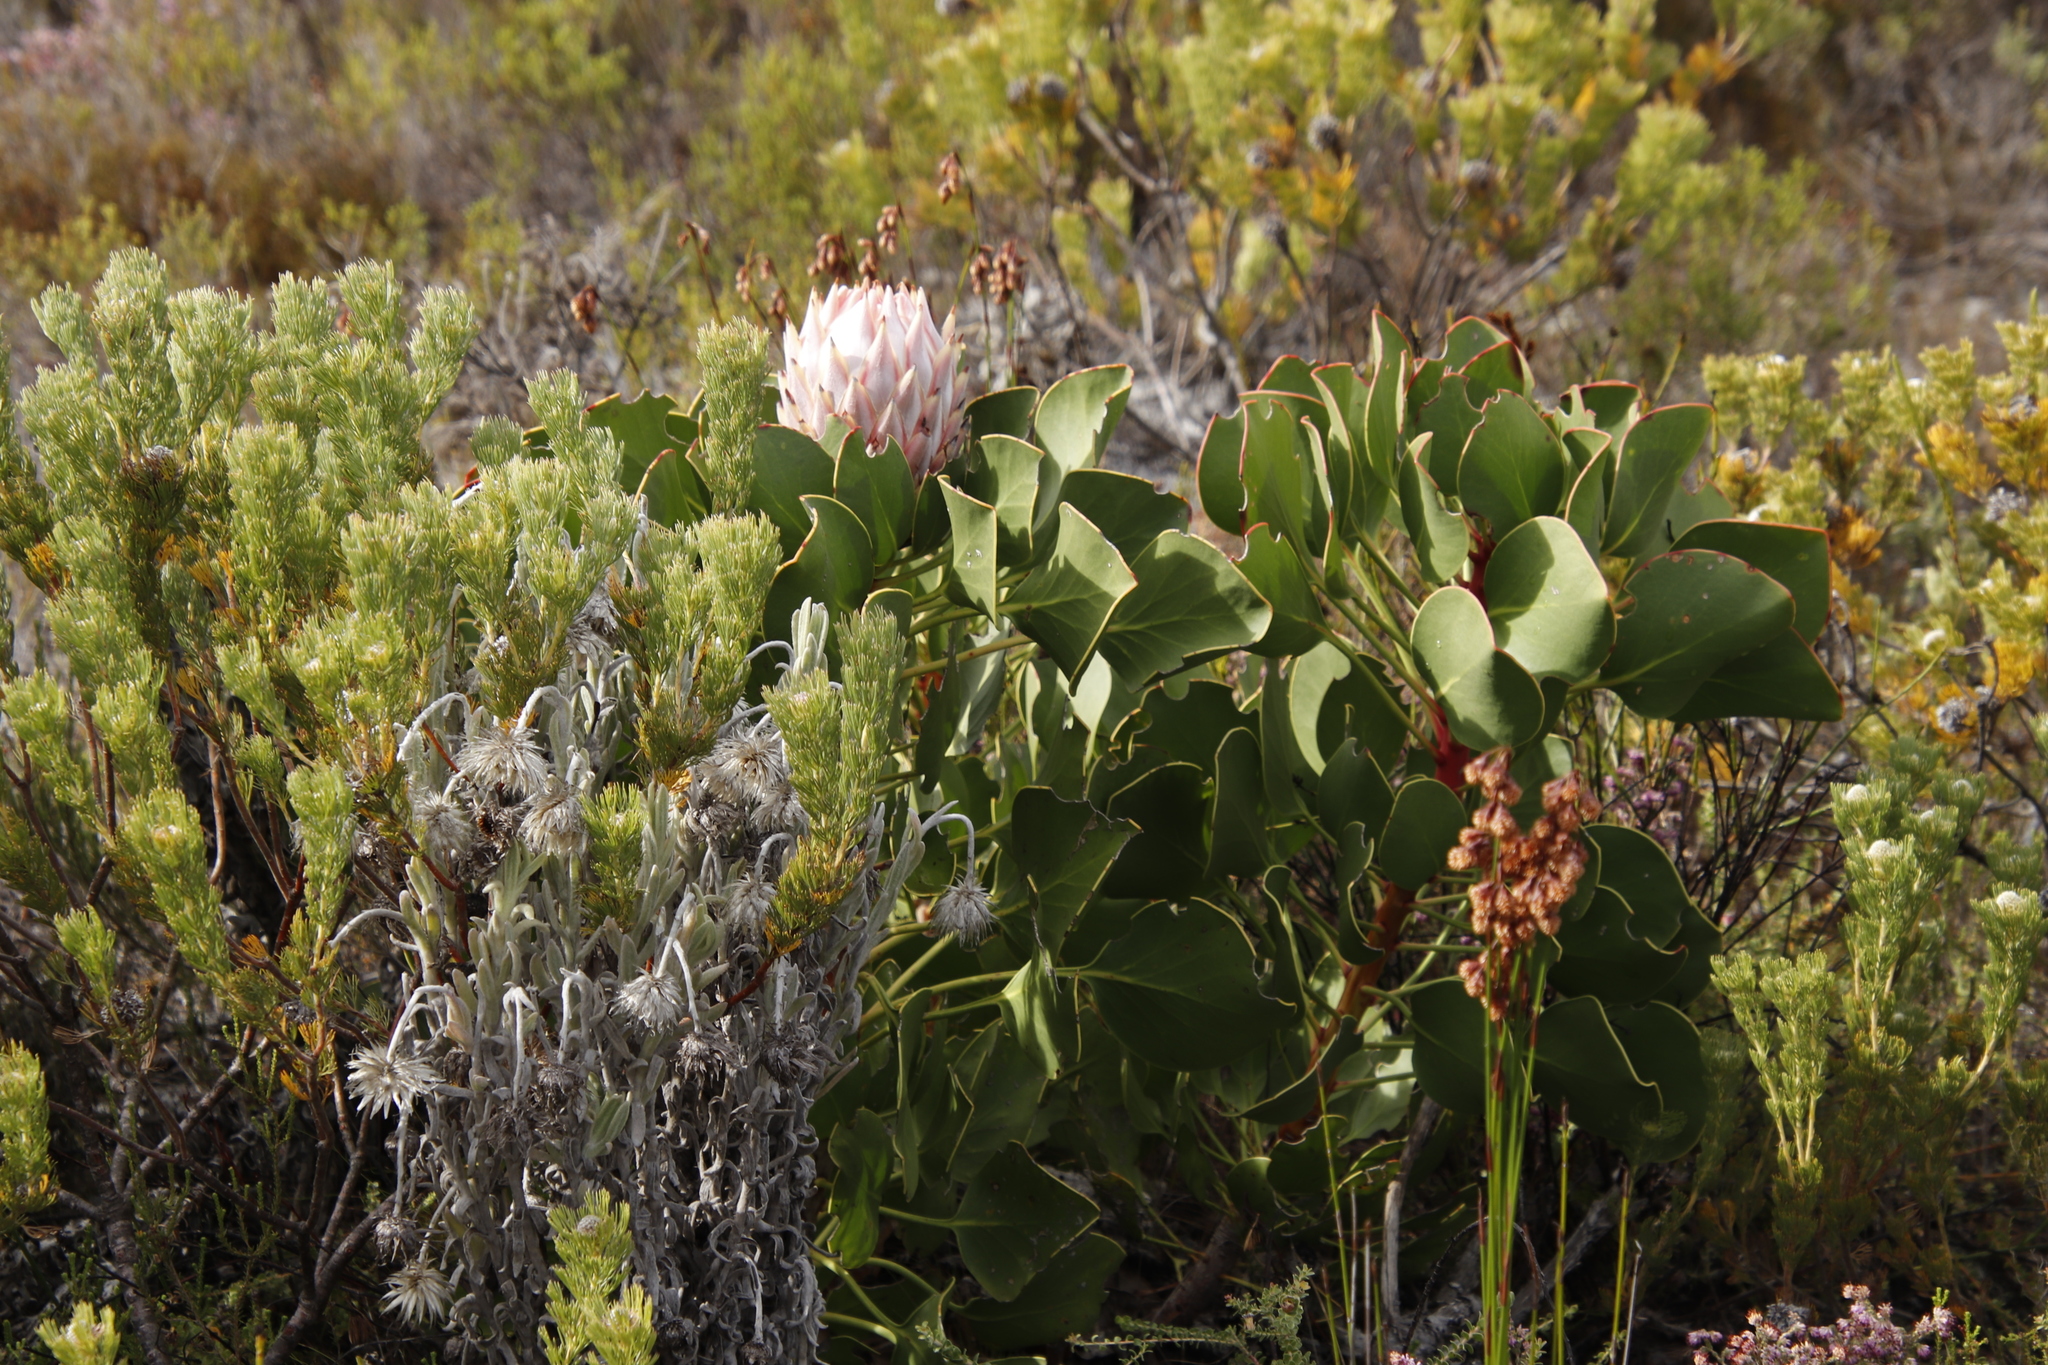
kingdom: Plantae
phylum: Tracheophyta
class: Magnoliopsida
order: Proteales
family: Proteaceae
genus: Protea
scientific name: Protea cynaroides
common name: King protea
